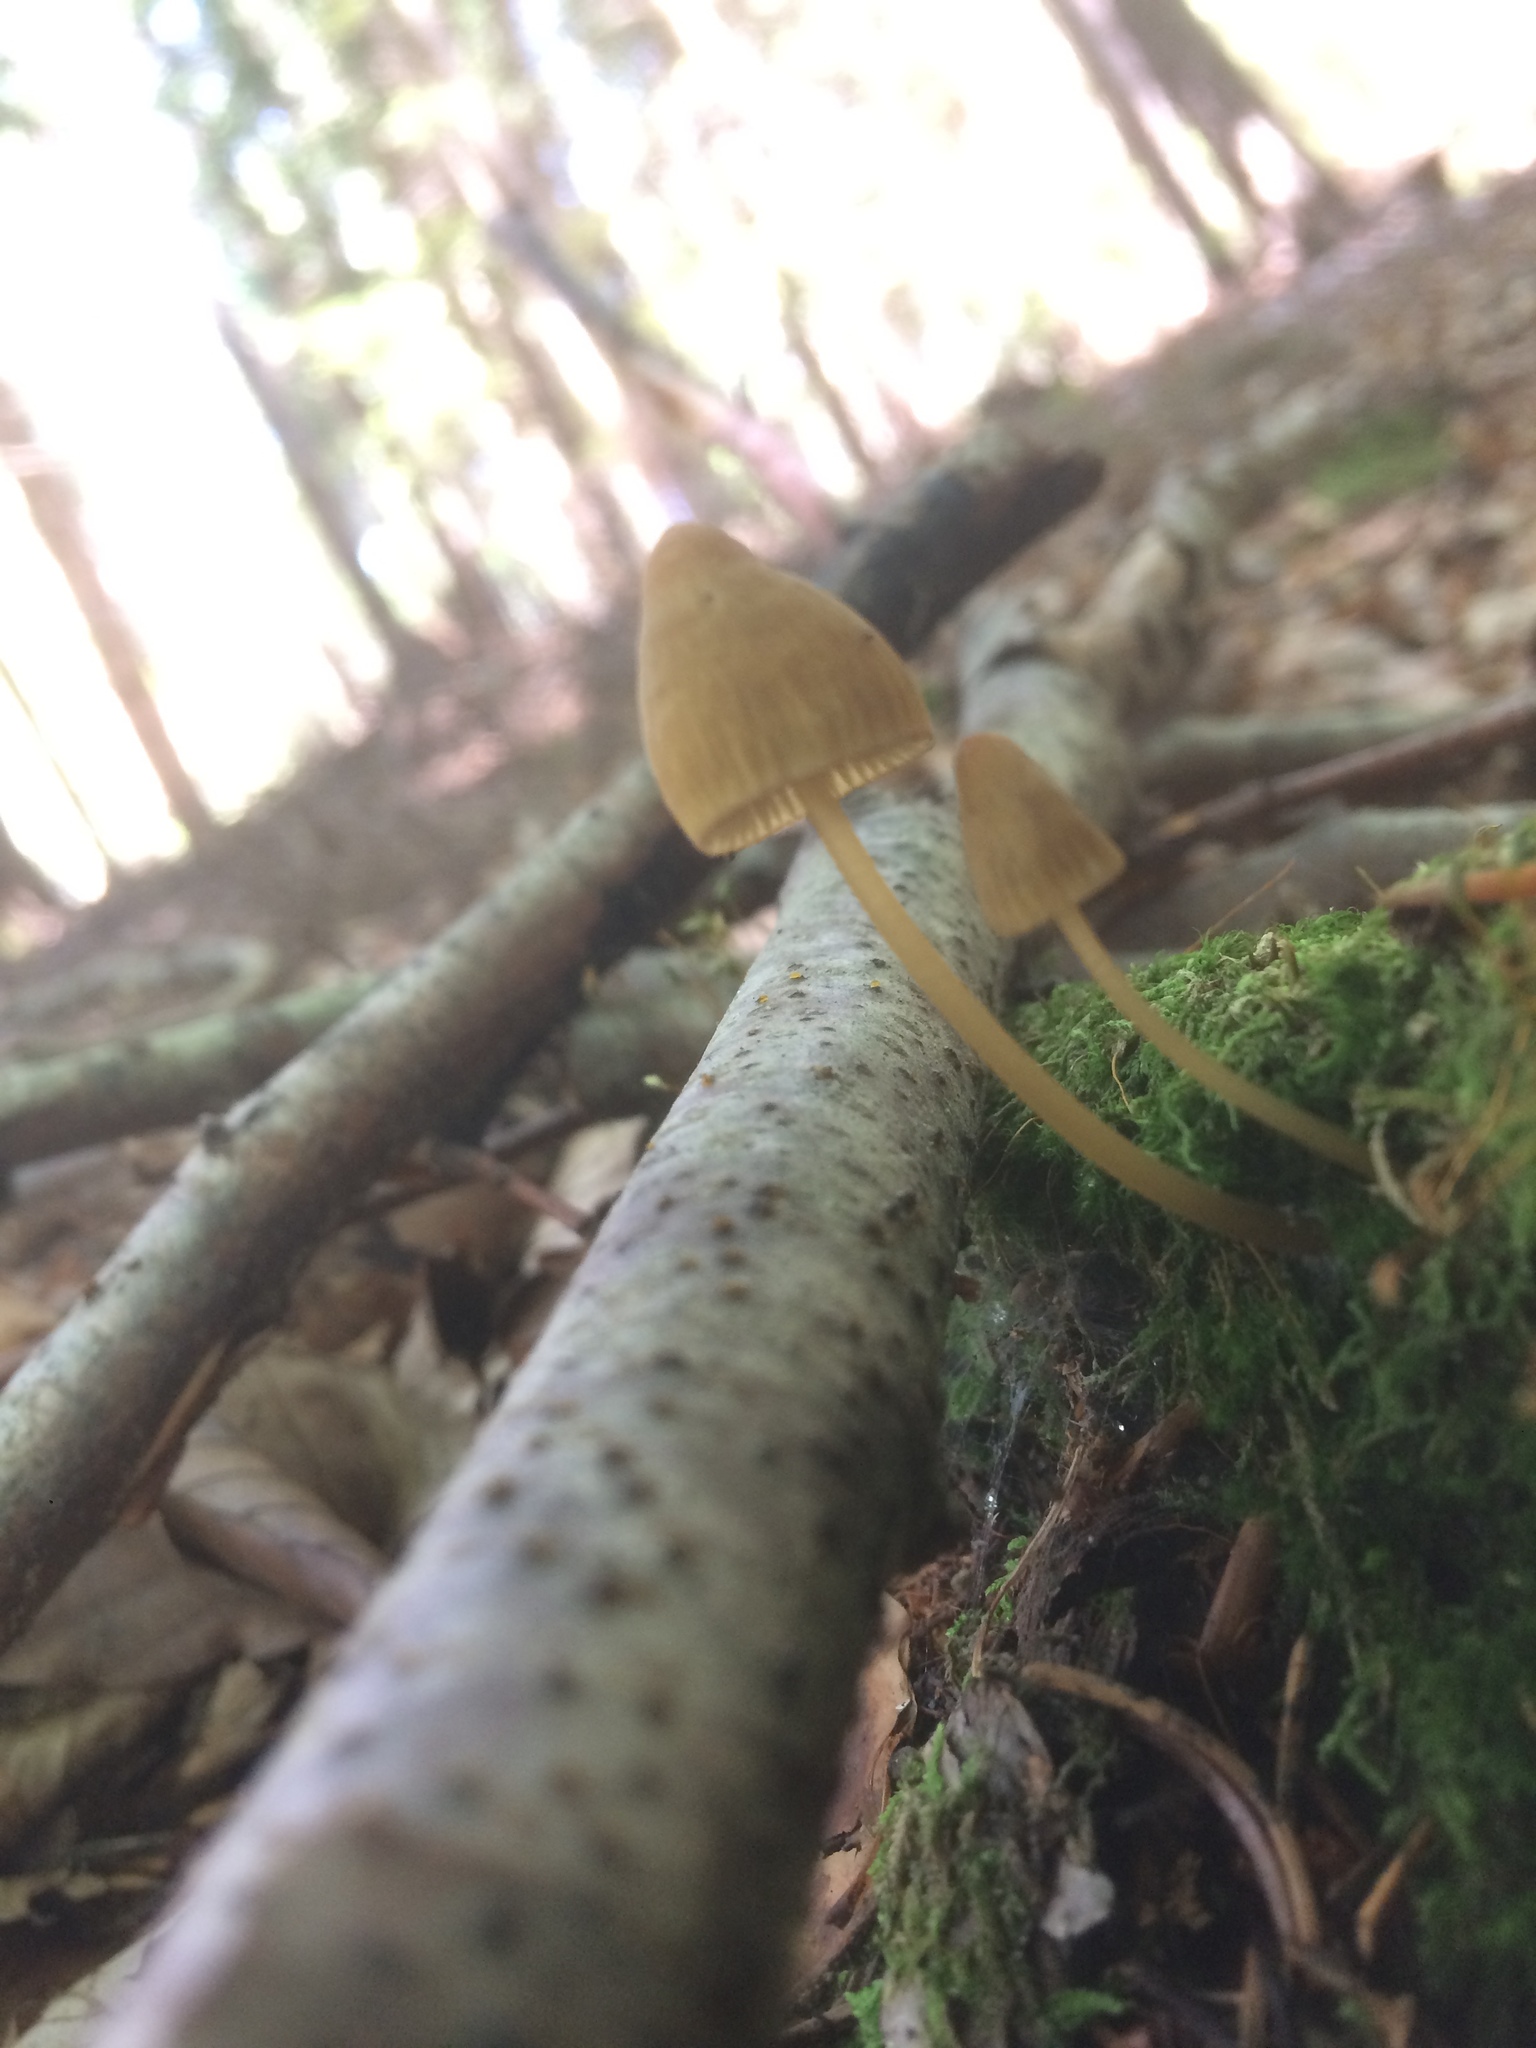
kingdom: Fungi
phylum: Basidiomycota
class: Agaricomycetes
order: Agaricales
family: Mycenaceae
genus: Mycena
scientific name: Mycena viridimarginata
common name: Olive edge bonnet
